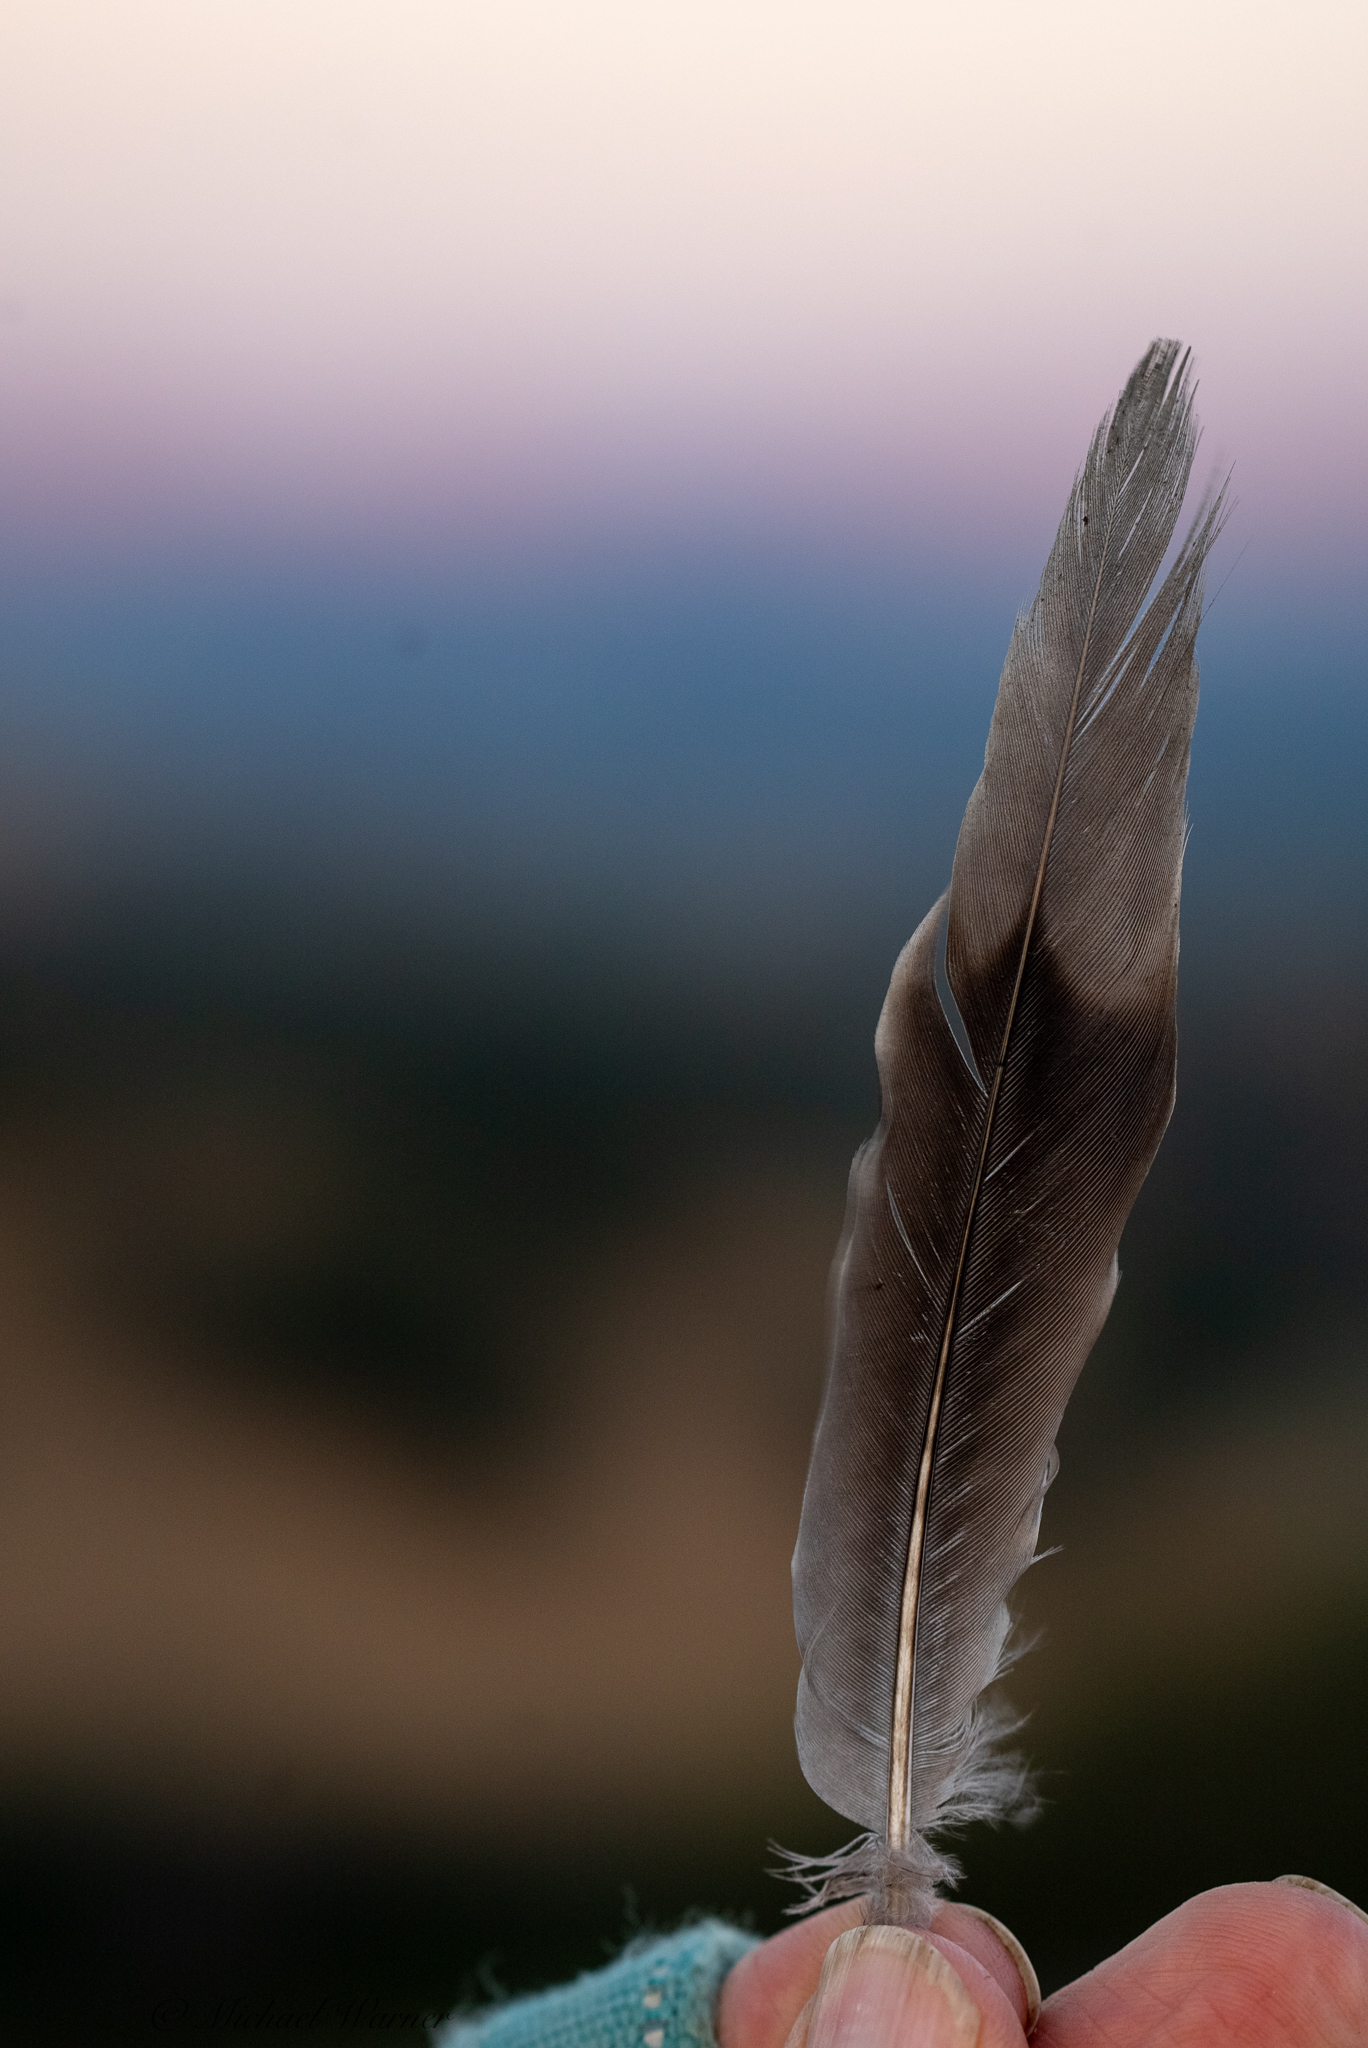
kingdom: Animalia
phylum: Chordata
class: Aves
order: Columbiformes
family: Columbidae
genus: Zenaida
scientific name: Zenaida macroura
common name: Mourning dove
